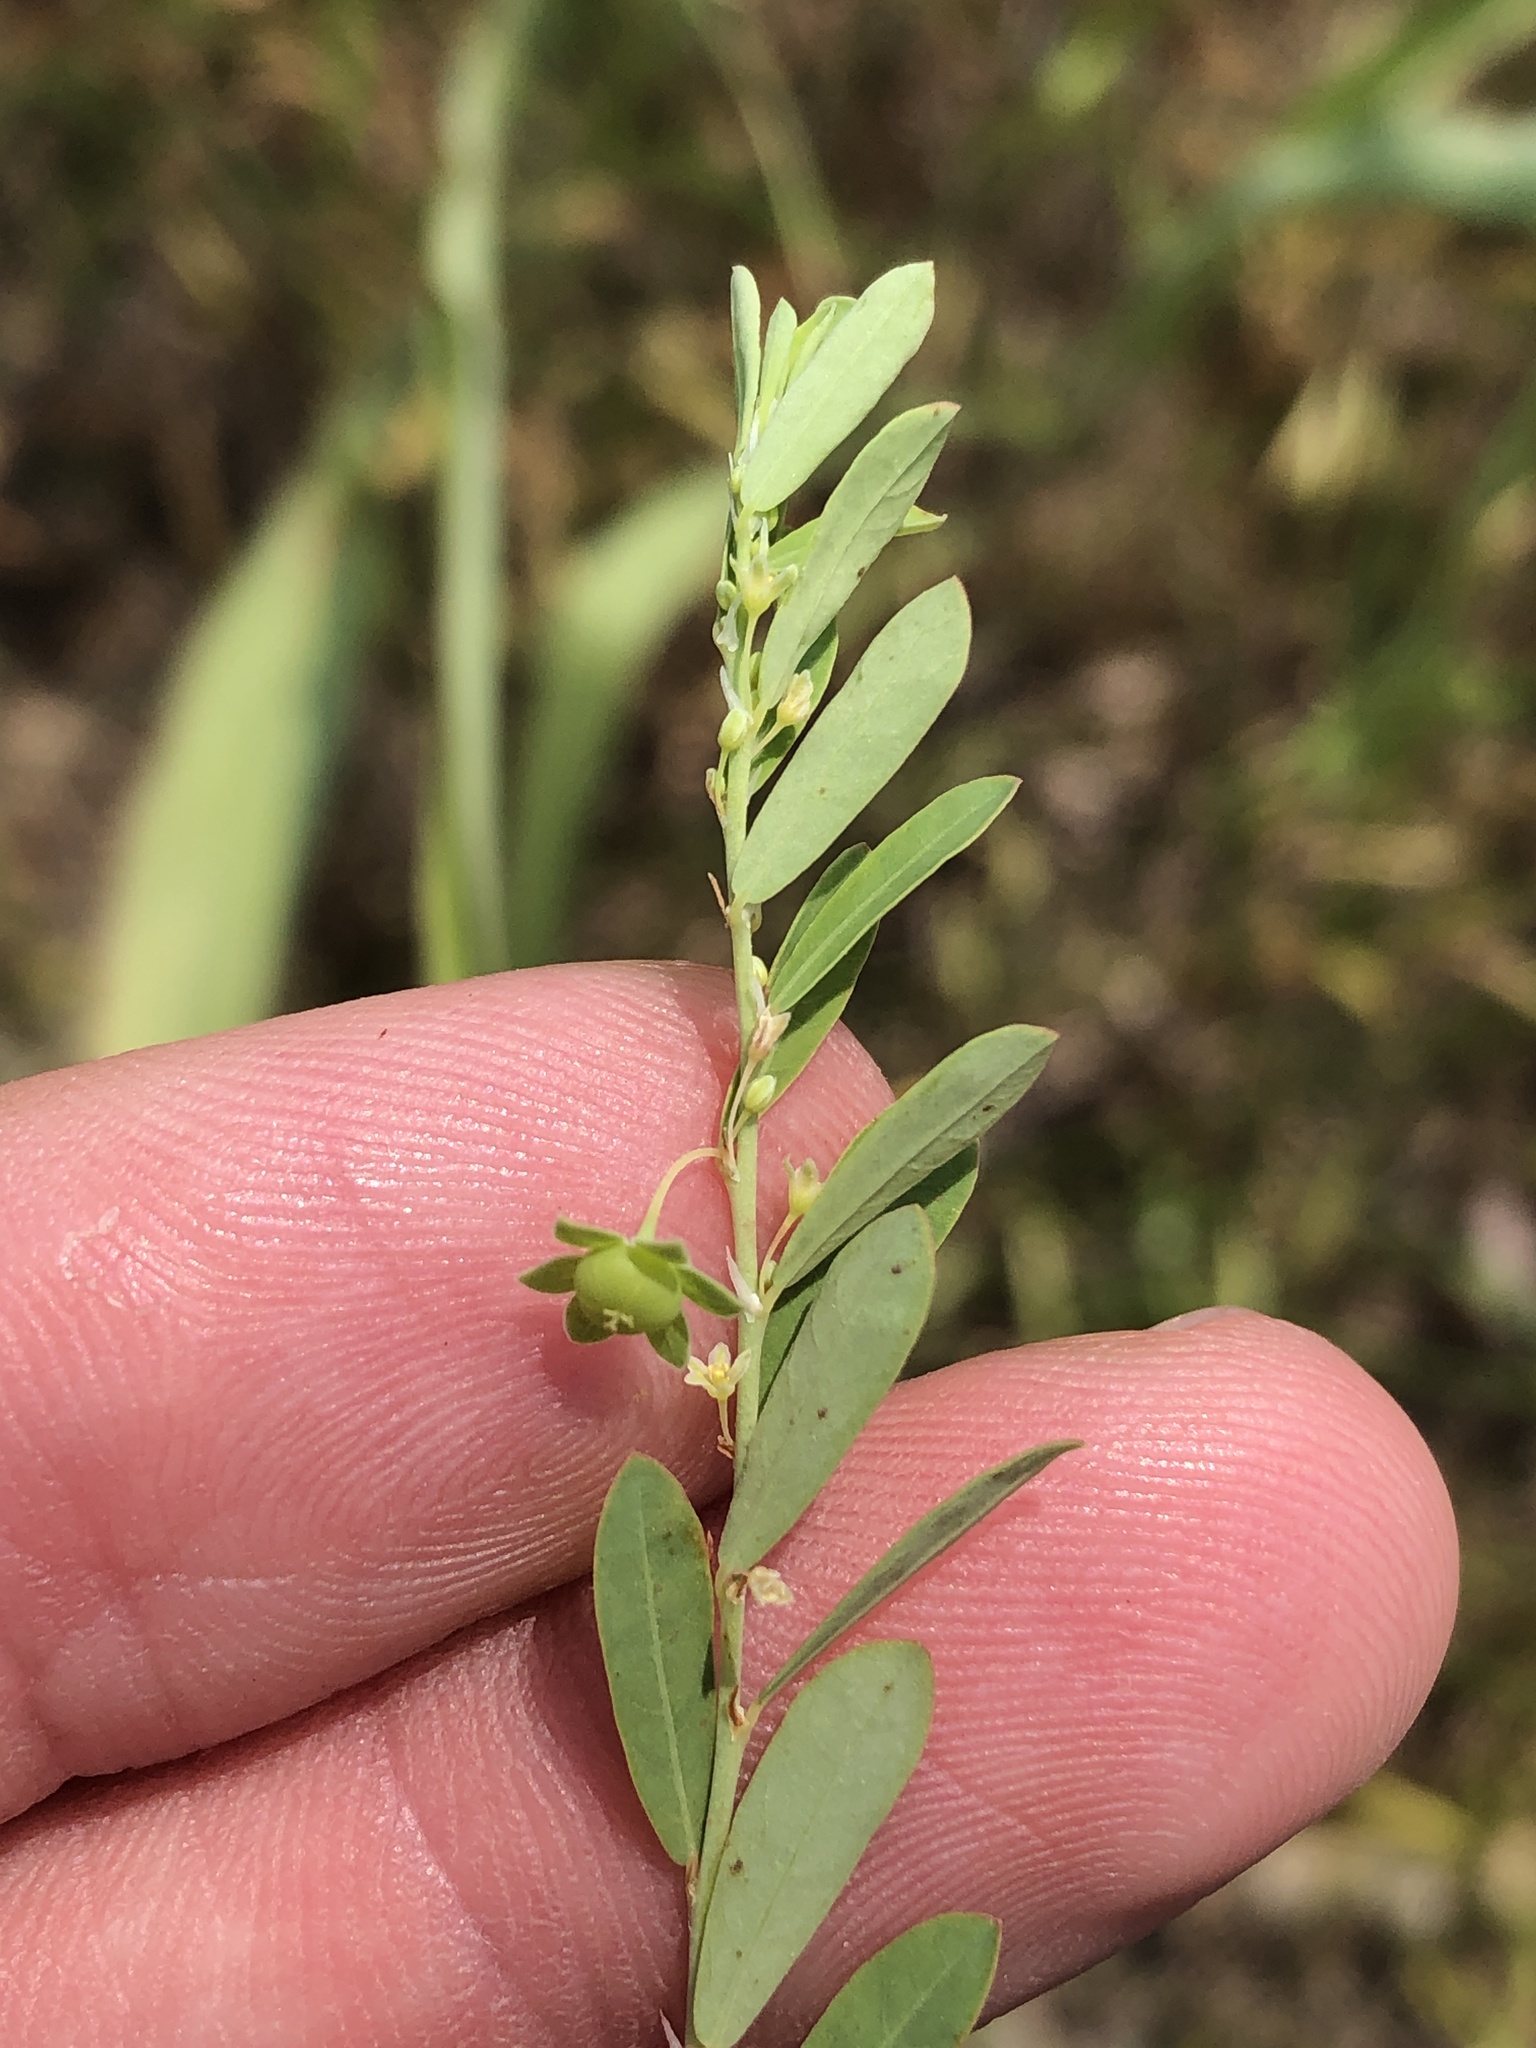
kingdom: Plantae
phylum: Tracheophyta
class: Magnoliopsida
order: Malpighiales
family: Phyllanthaceae
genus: Phyllanthus
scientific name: Phyllanthus polygonoides
